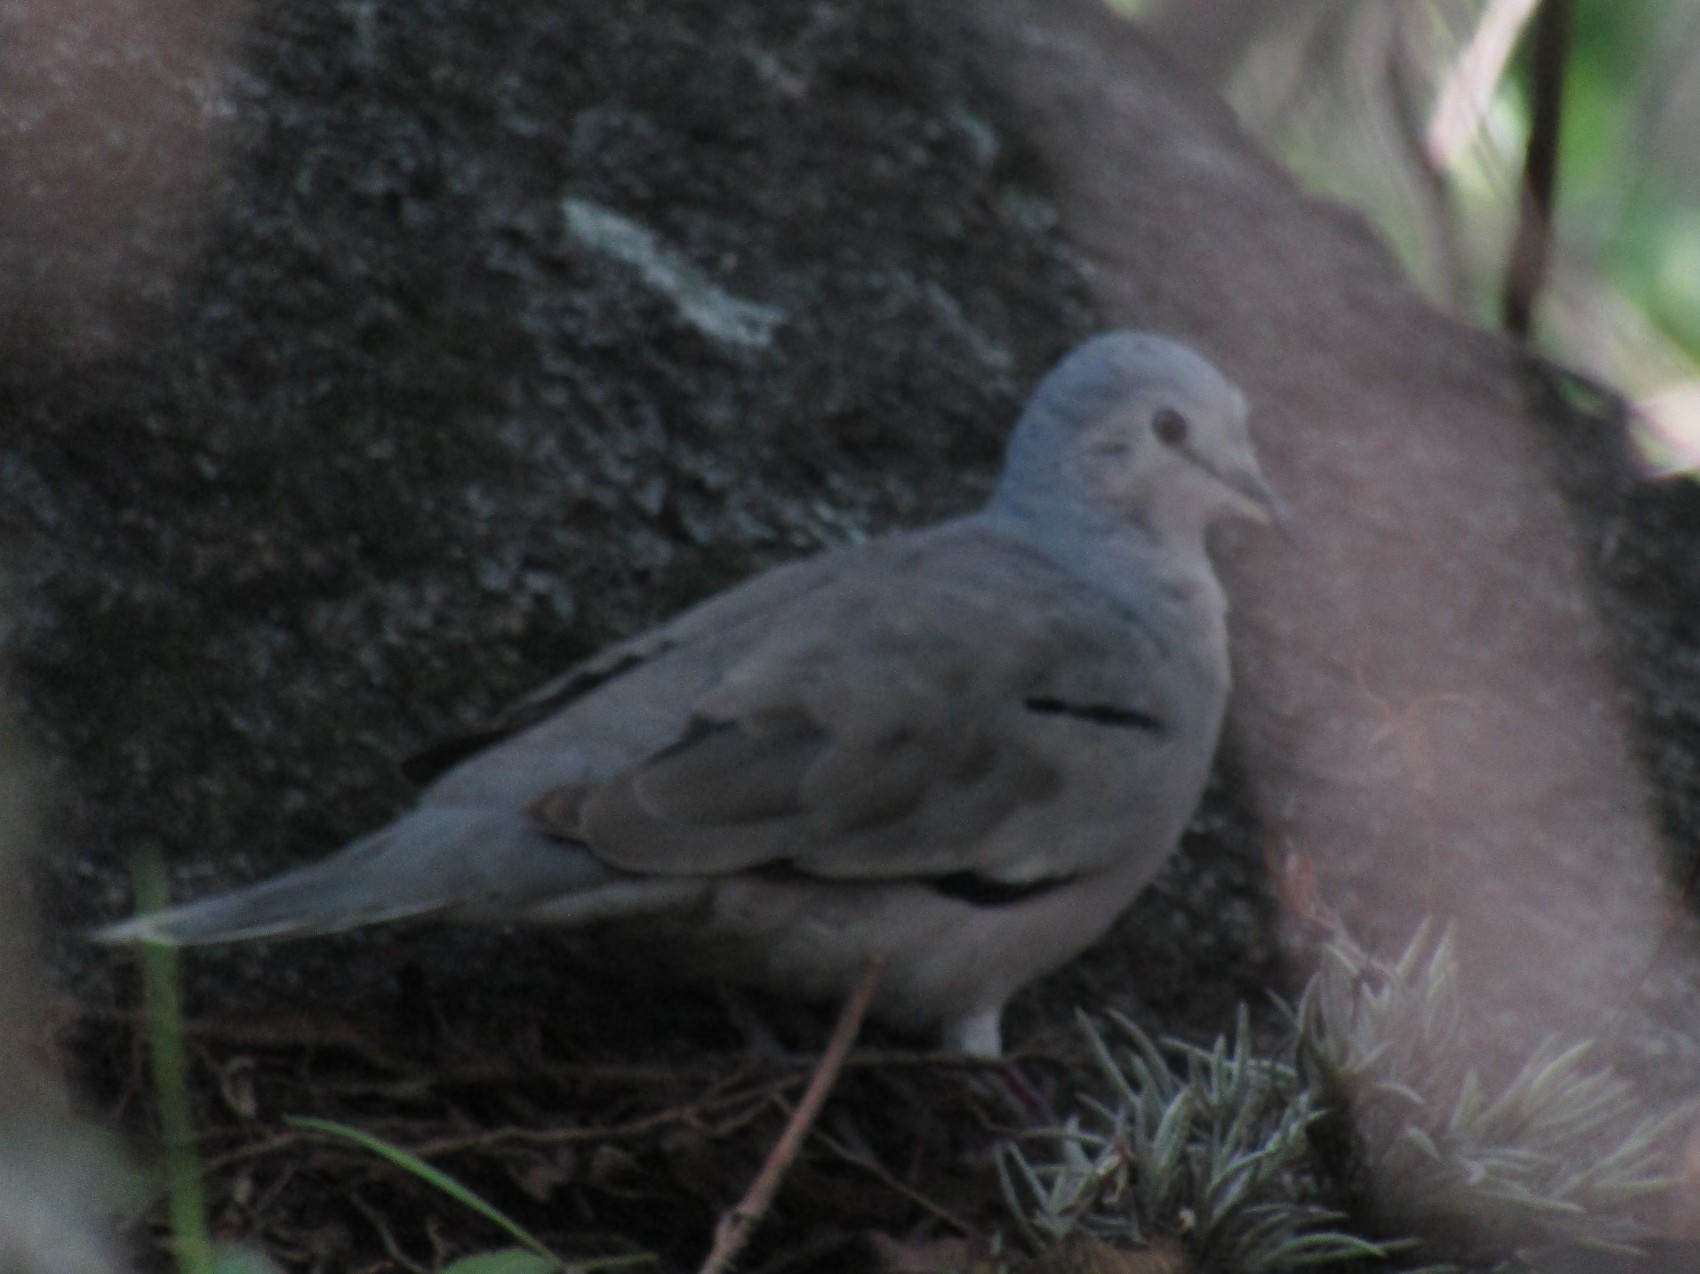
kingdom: Animalia
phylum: Chordata
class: Aves
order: Columbiformes
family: Columbidae
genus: Columbina
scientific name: Columbina picui
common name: Picui ground dove
